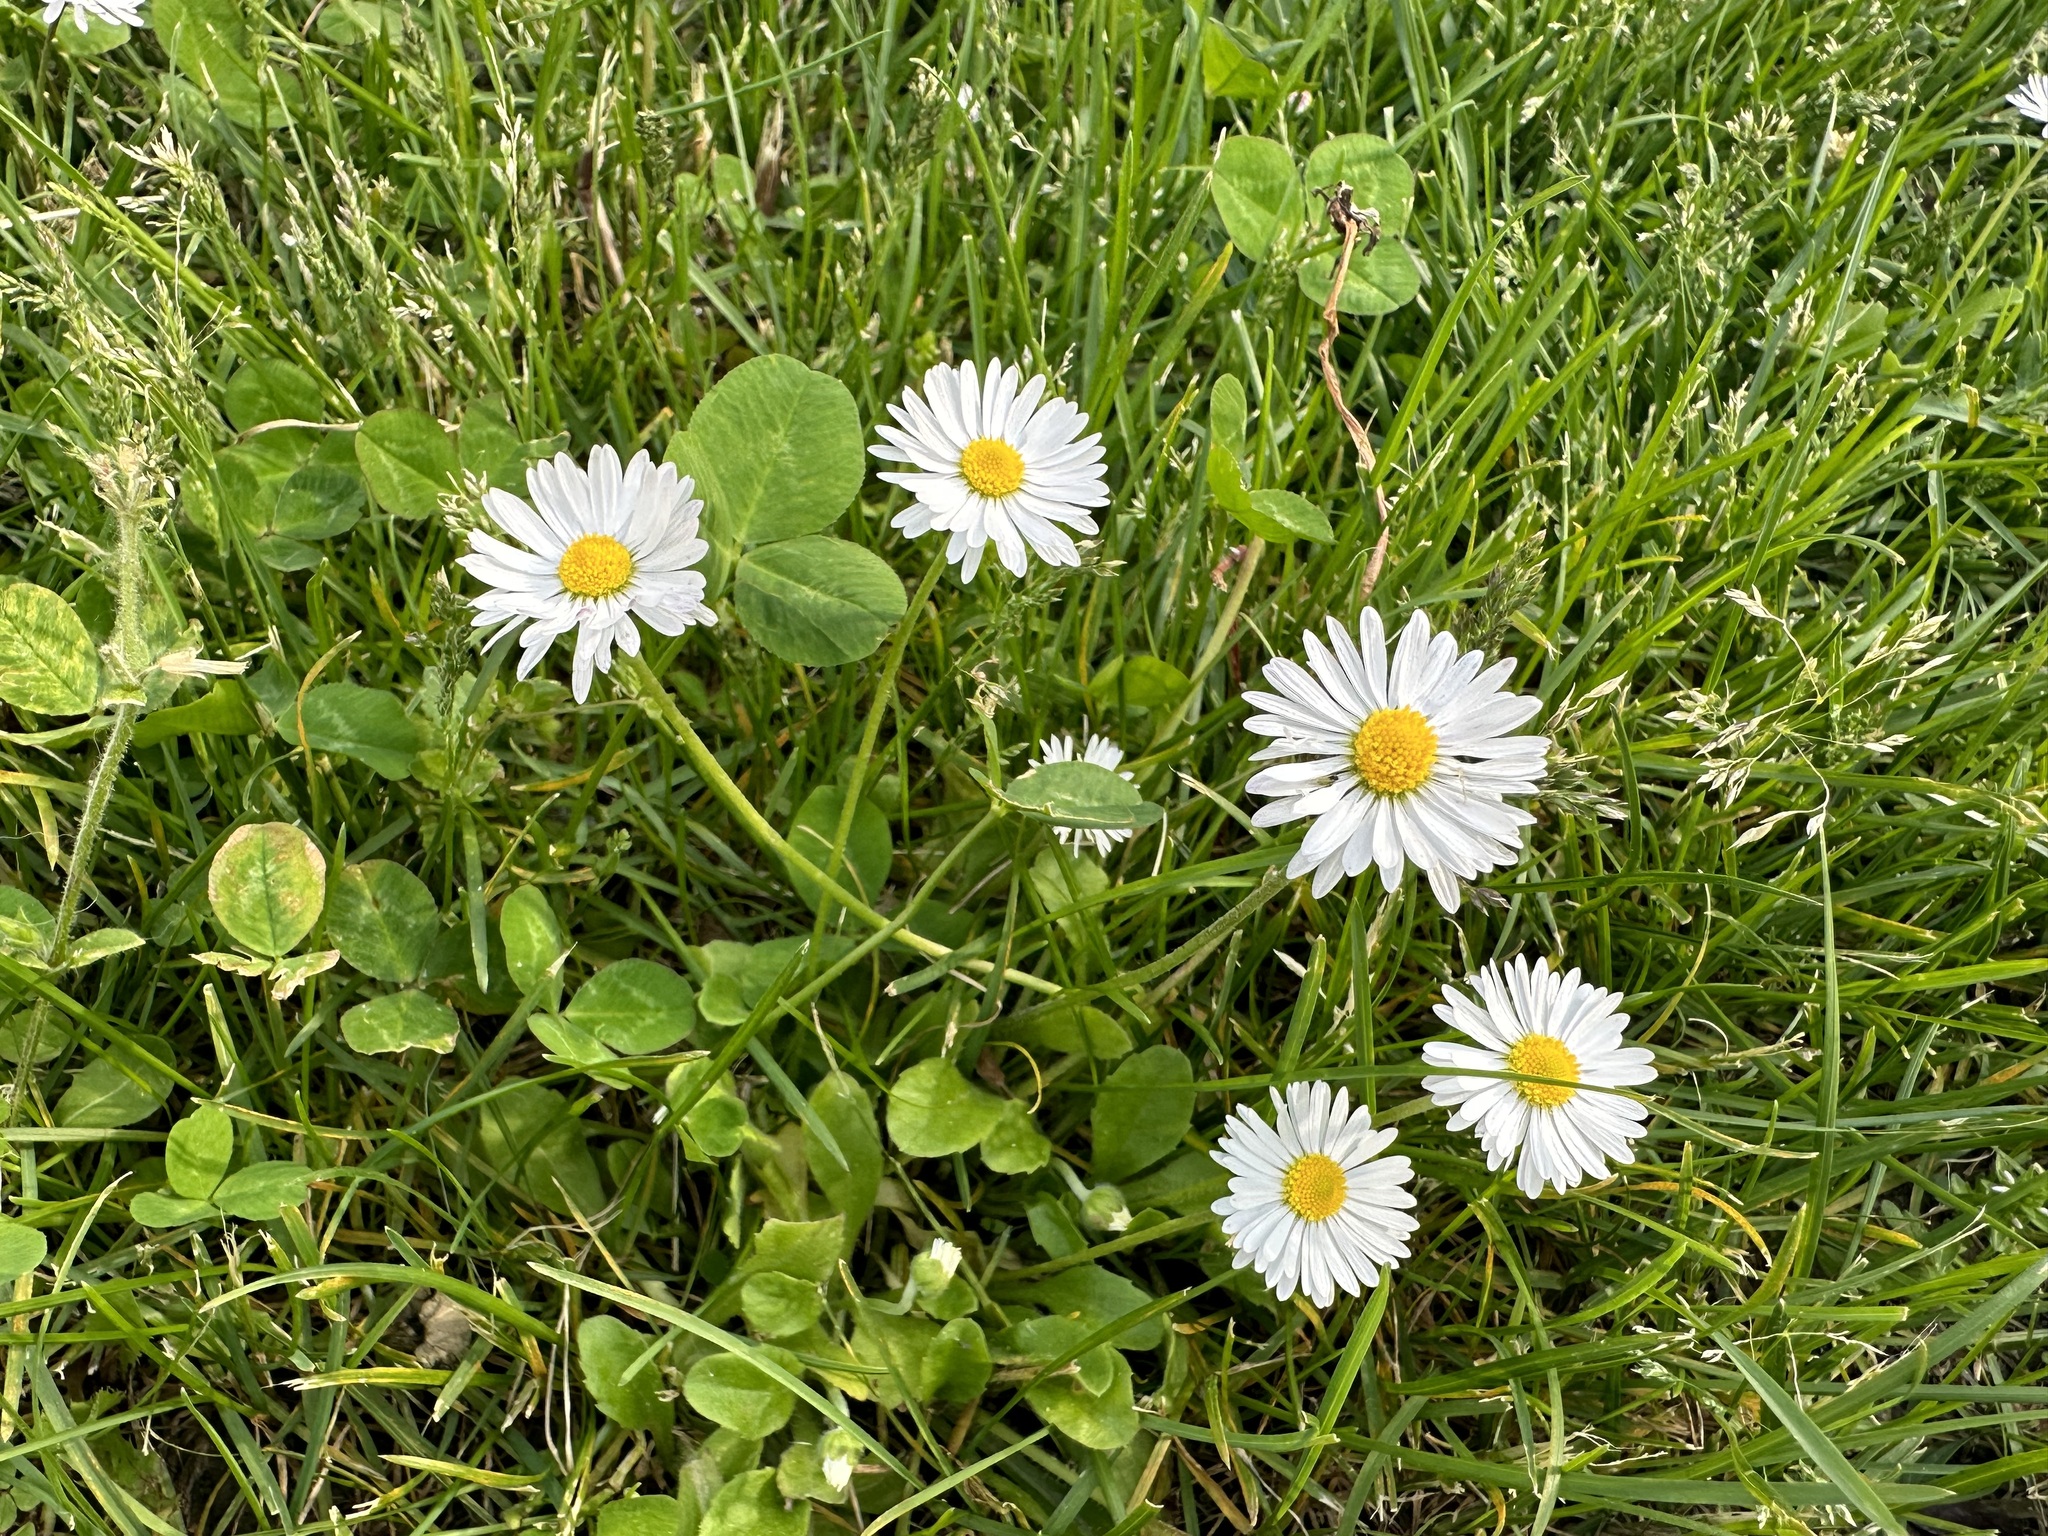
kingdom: Plantae
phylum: Tracheophyta
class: Magnoliopsida
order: Asterales
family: Asteraceae
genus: Bellis
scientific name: Bellis perennis
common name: Lawndaisy
